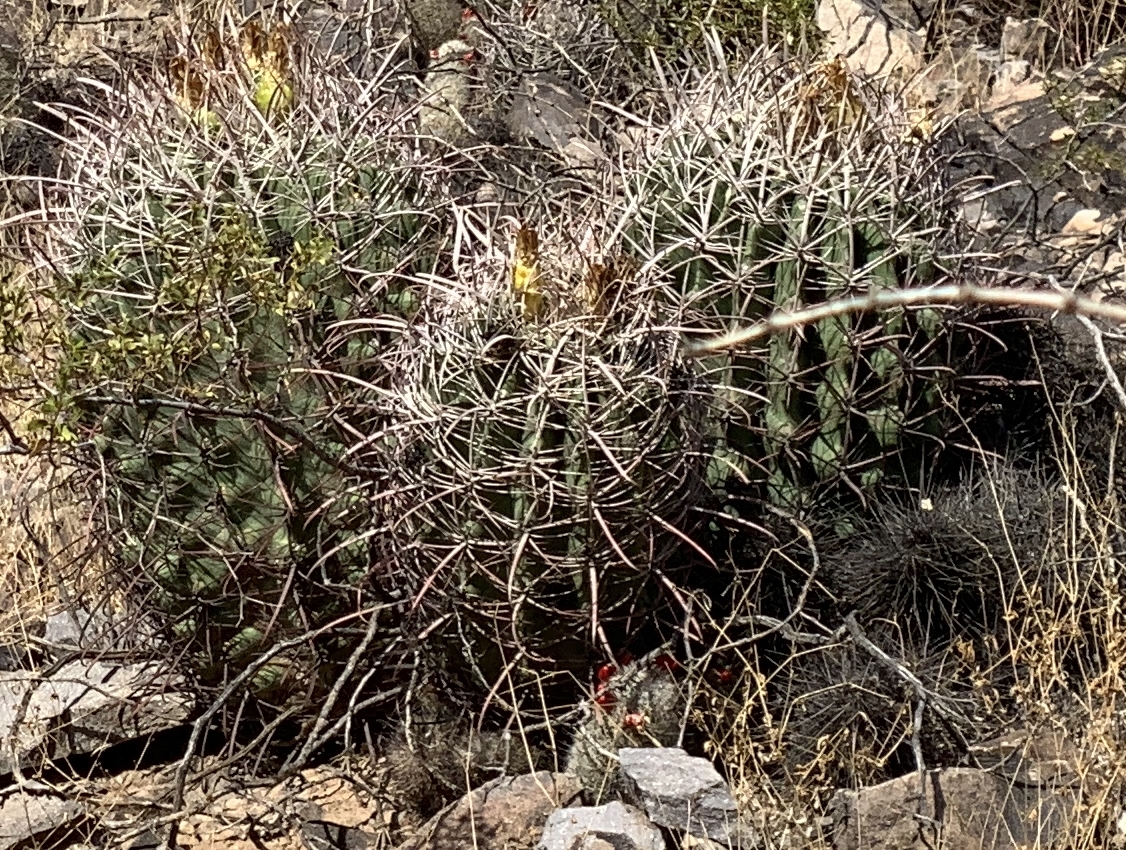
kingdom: Plantae
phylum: Tracheophyta
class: Magnoliopsida
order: Caryophyllales
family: Cactaceae
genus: Ferocactus
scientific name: Ferocactus cylindraceus
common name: California barrel cactus
